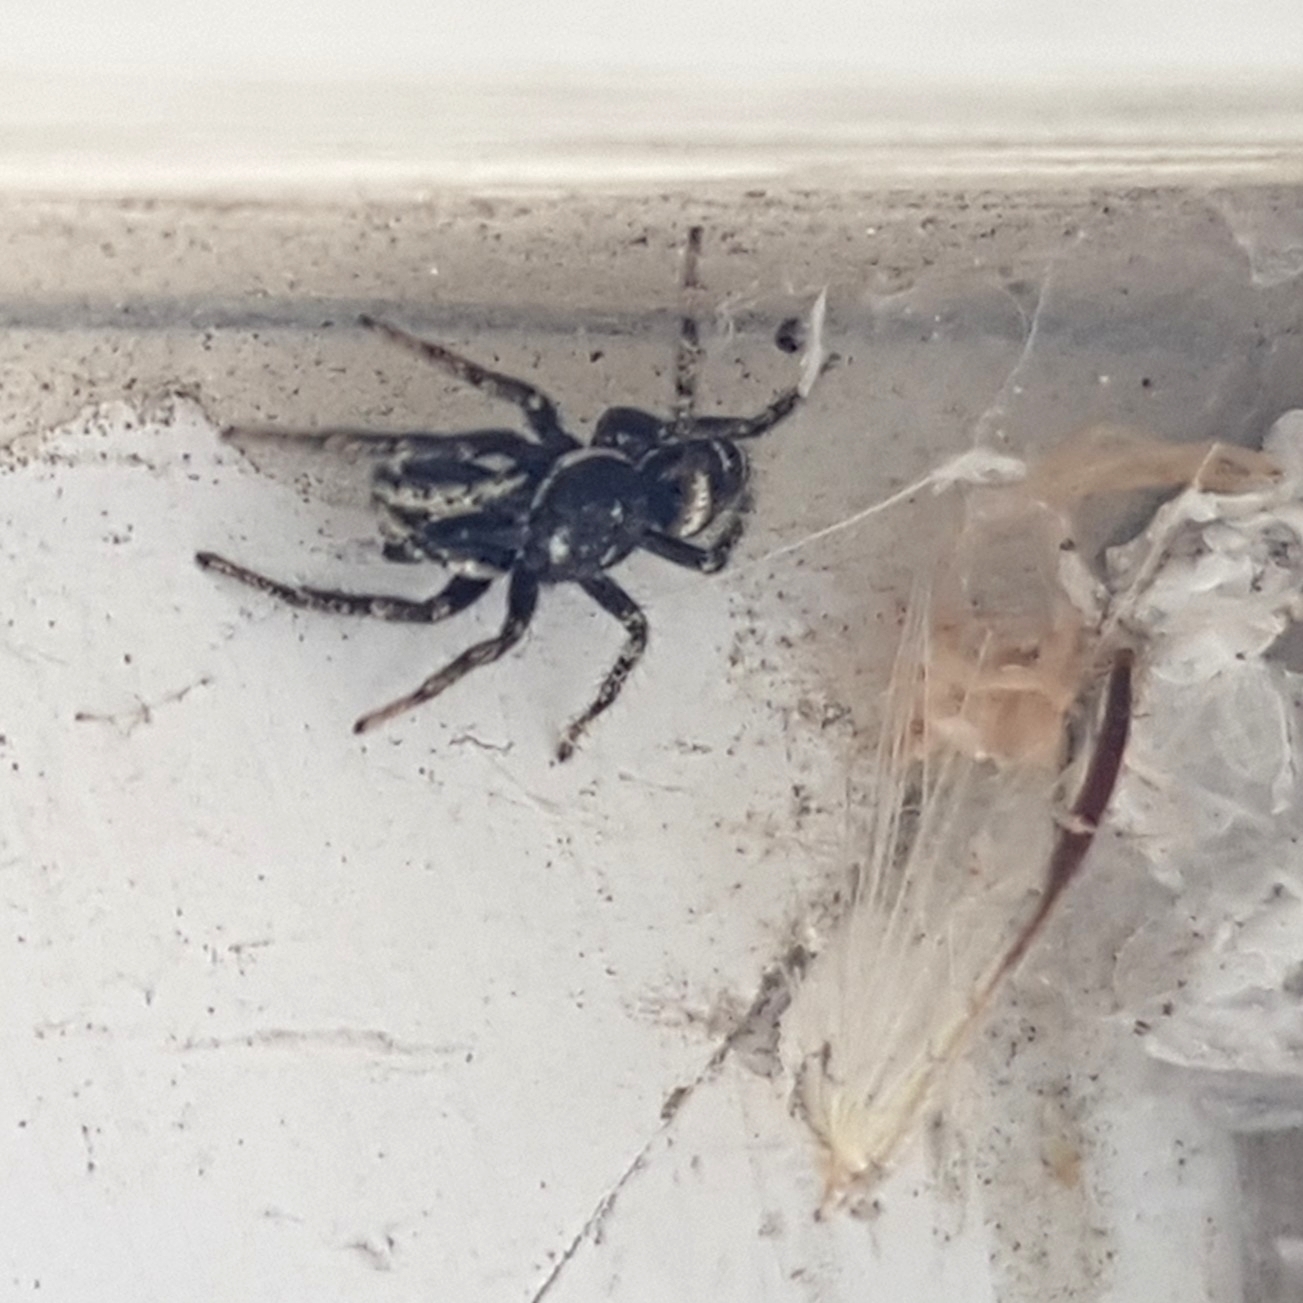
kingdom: Animalia
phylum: Arthropoda
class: Arachnida
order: Araneae
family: Salticidae
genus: Salticus
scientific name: Salticus scenicus
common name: Zebra jumper
